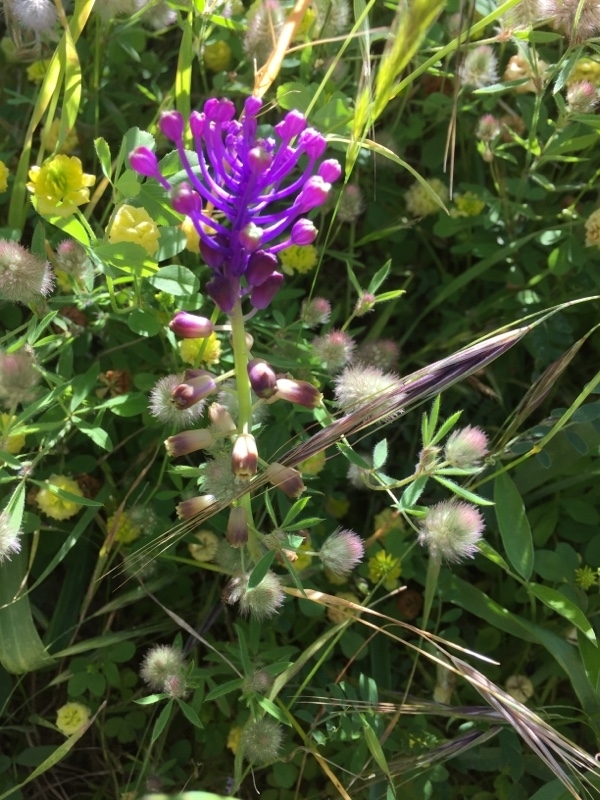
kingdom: Plantae
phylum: Tracheophyta
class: Liliopsida
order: Asparagales
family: Asparagaceae
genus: Muscari
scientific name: Muscari comosum
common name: Tassel hyacinth
